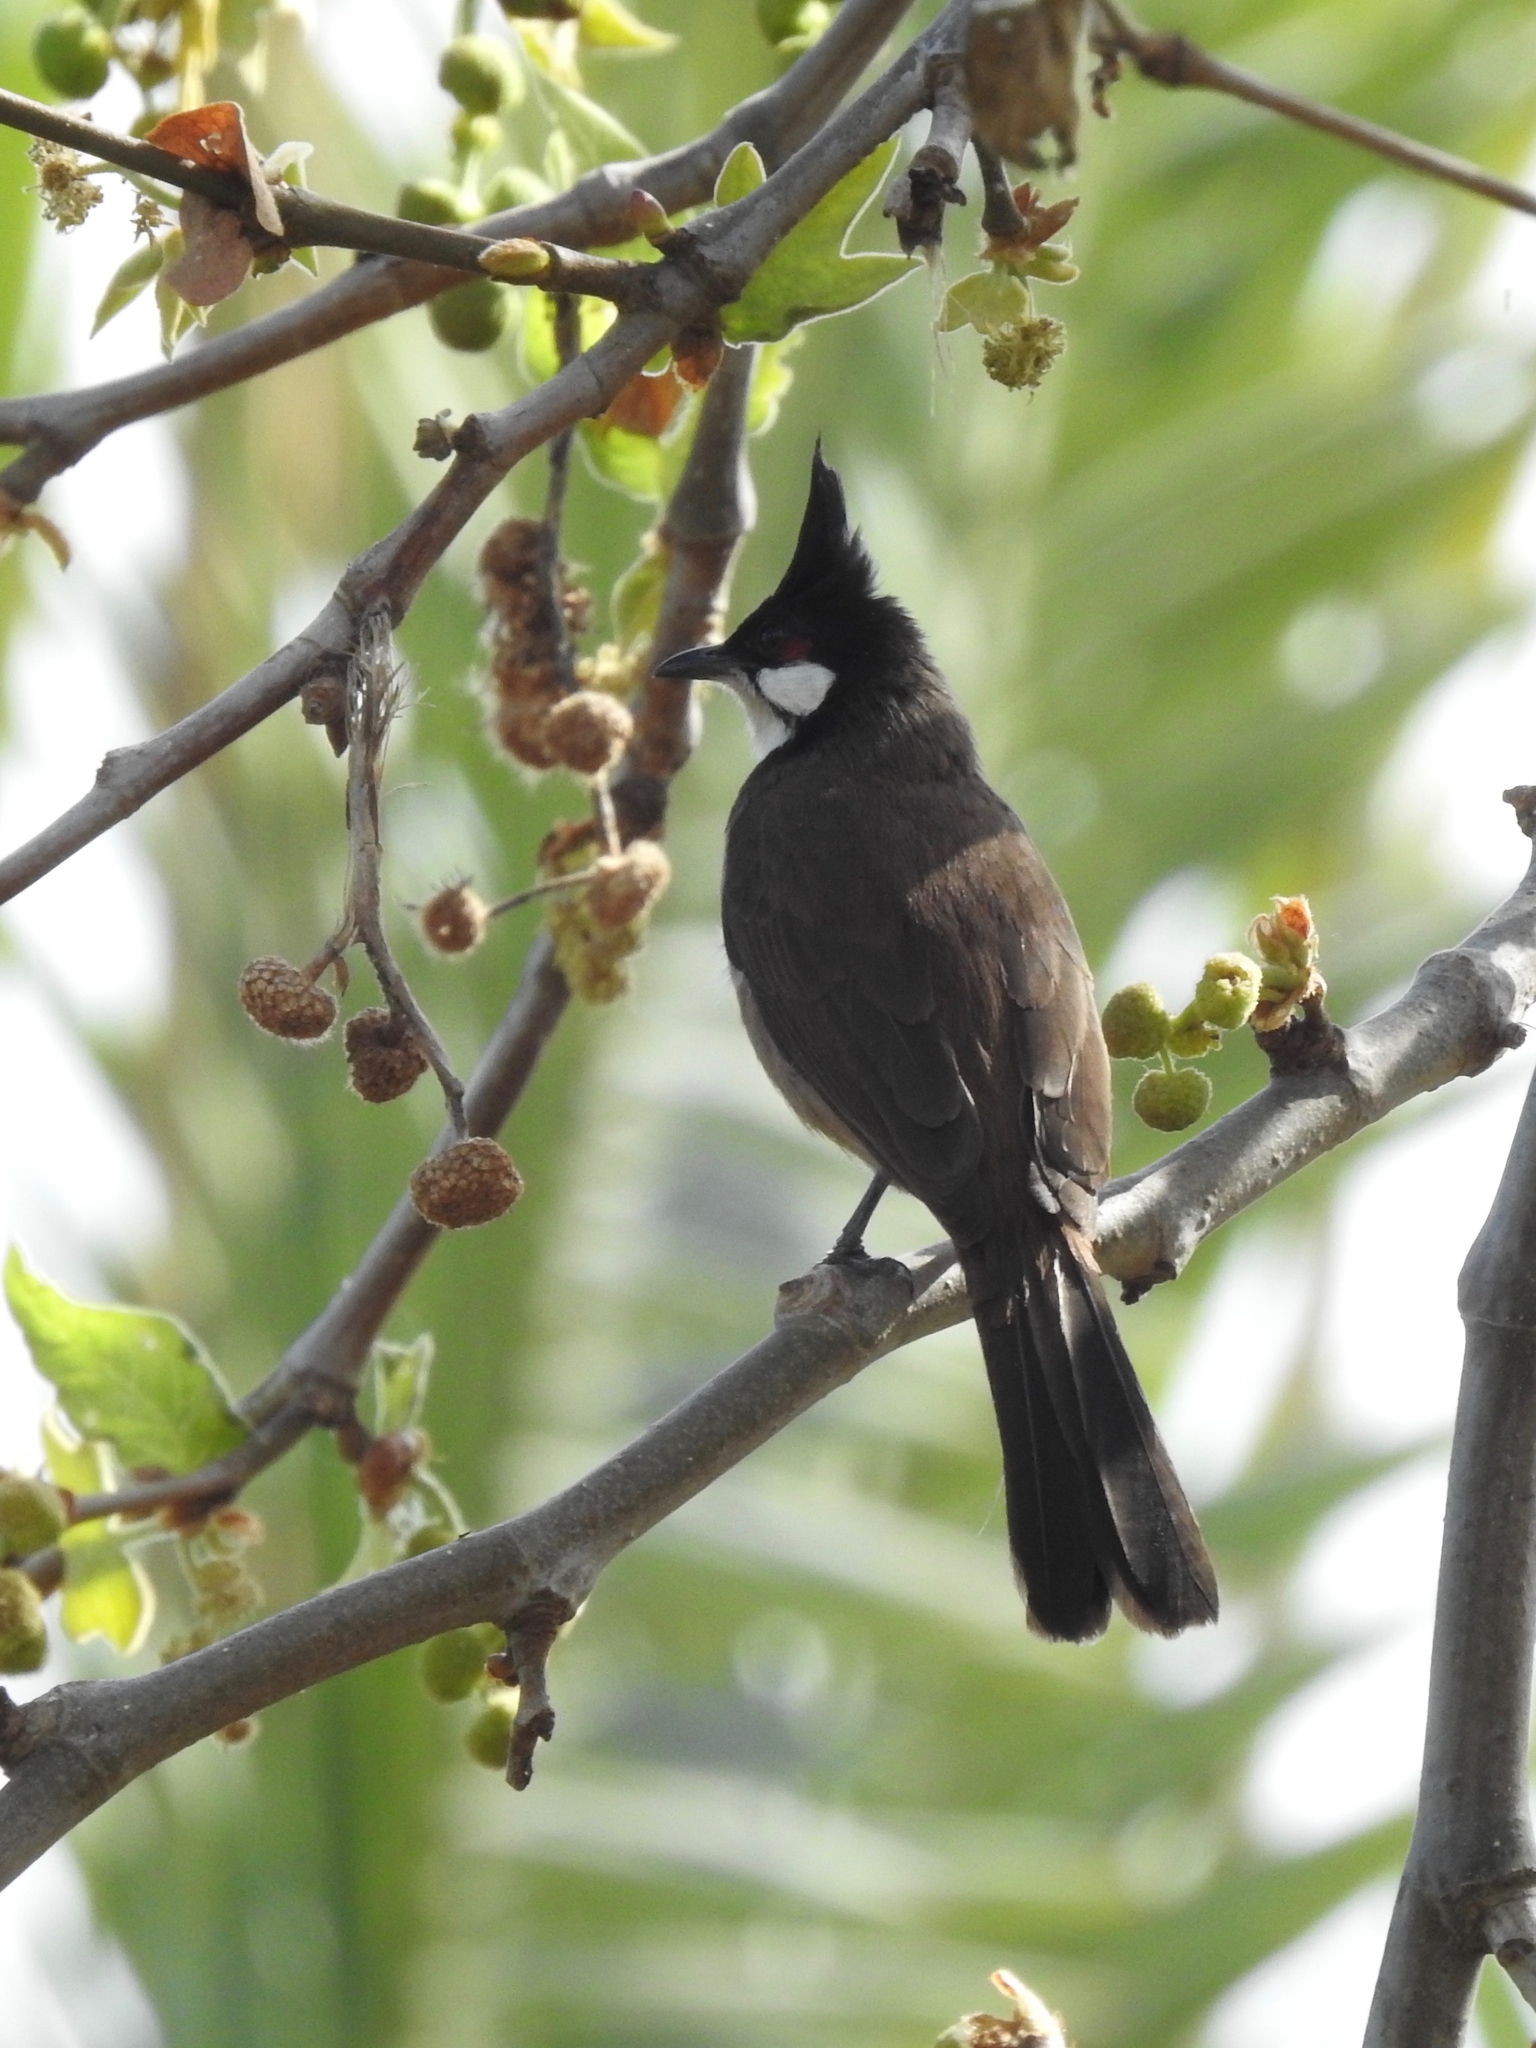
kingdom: Animalia
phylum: Chordata
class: Aves
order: Passeriformes
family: Pycnonotidae
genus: Pycnonotus
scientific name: Pycnonotus jocosus
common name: Red-whiskered bulbul
